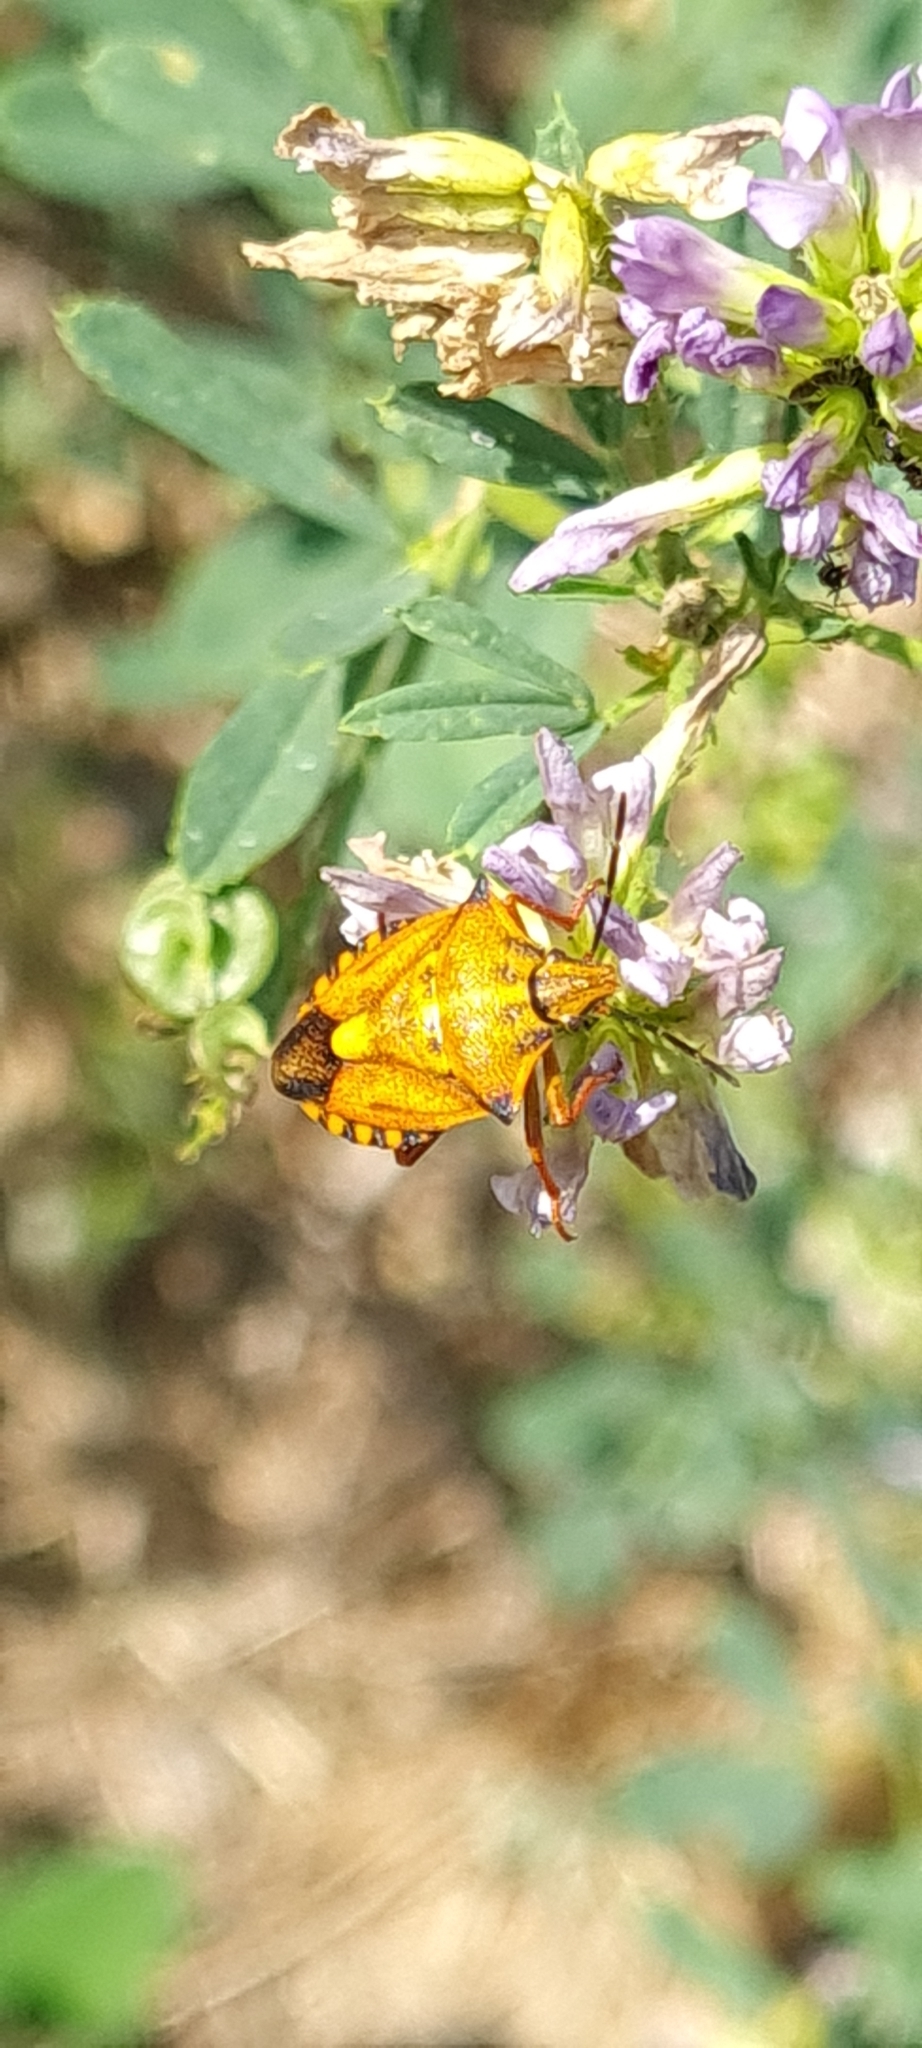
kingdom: Animalia
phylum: Arthropoda
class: Insecta
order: Hemiptera
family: Pentatomidae
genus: Carpocoris
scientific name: Carpocoris mediterraneus
